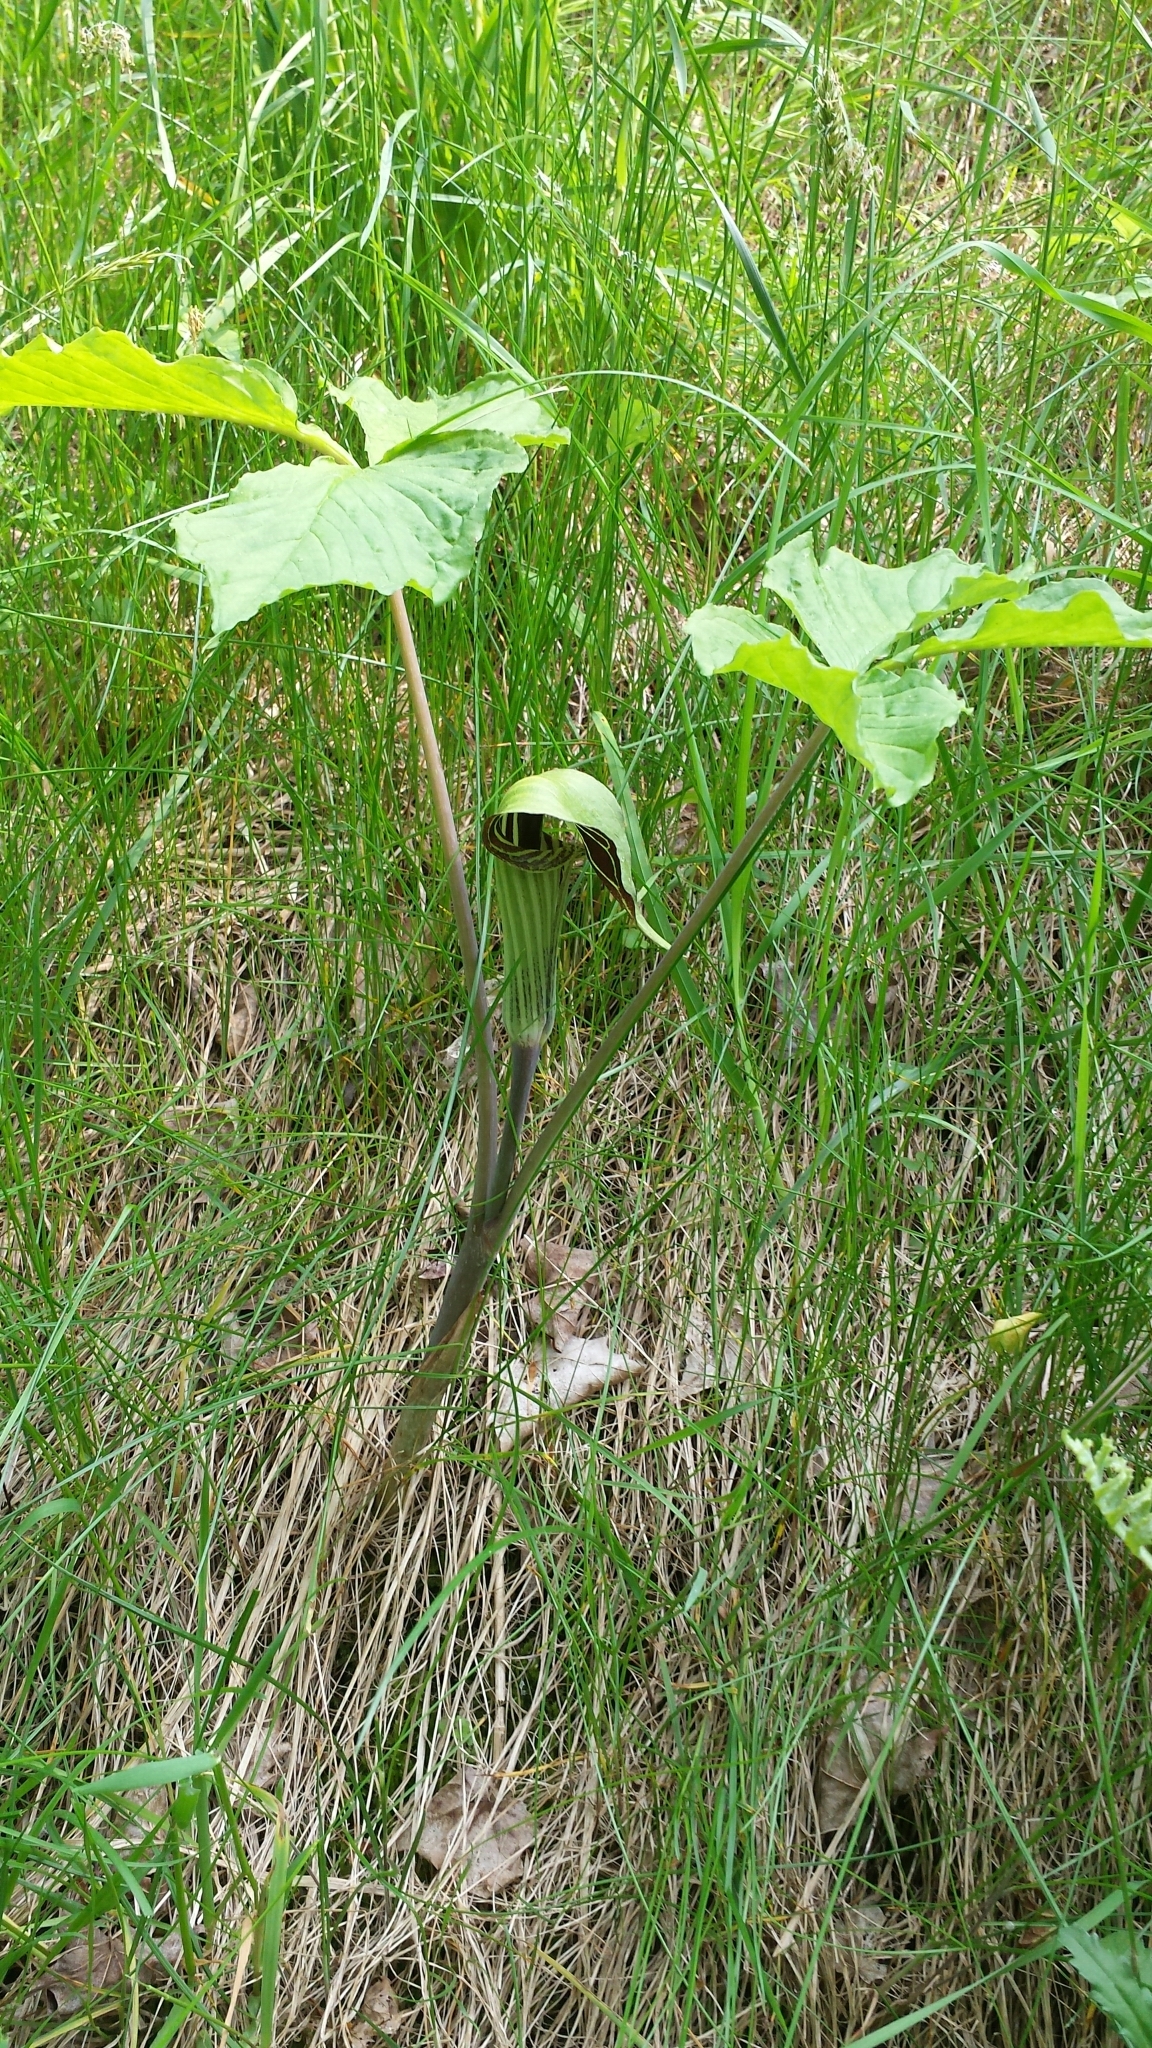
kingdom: Plantae
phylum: Tracheophyta
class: Liliopsida
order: Alismatales
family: Araceae
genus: Arisaema
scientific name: Arisaema triphyllum
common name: Jack-in-the-pulpit
